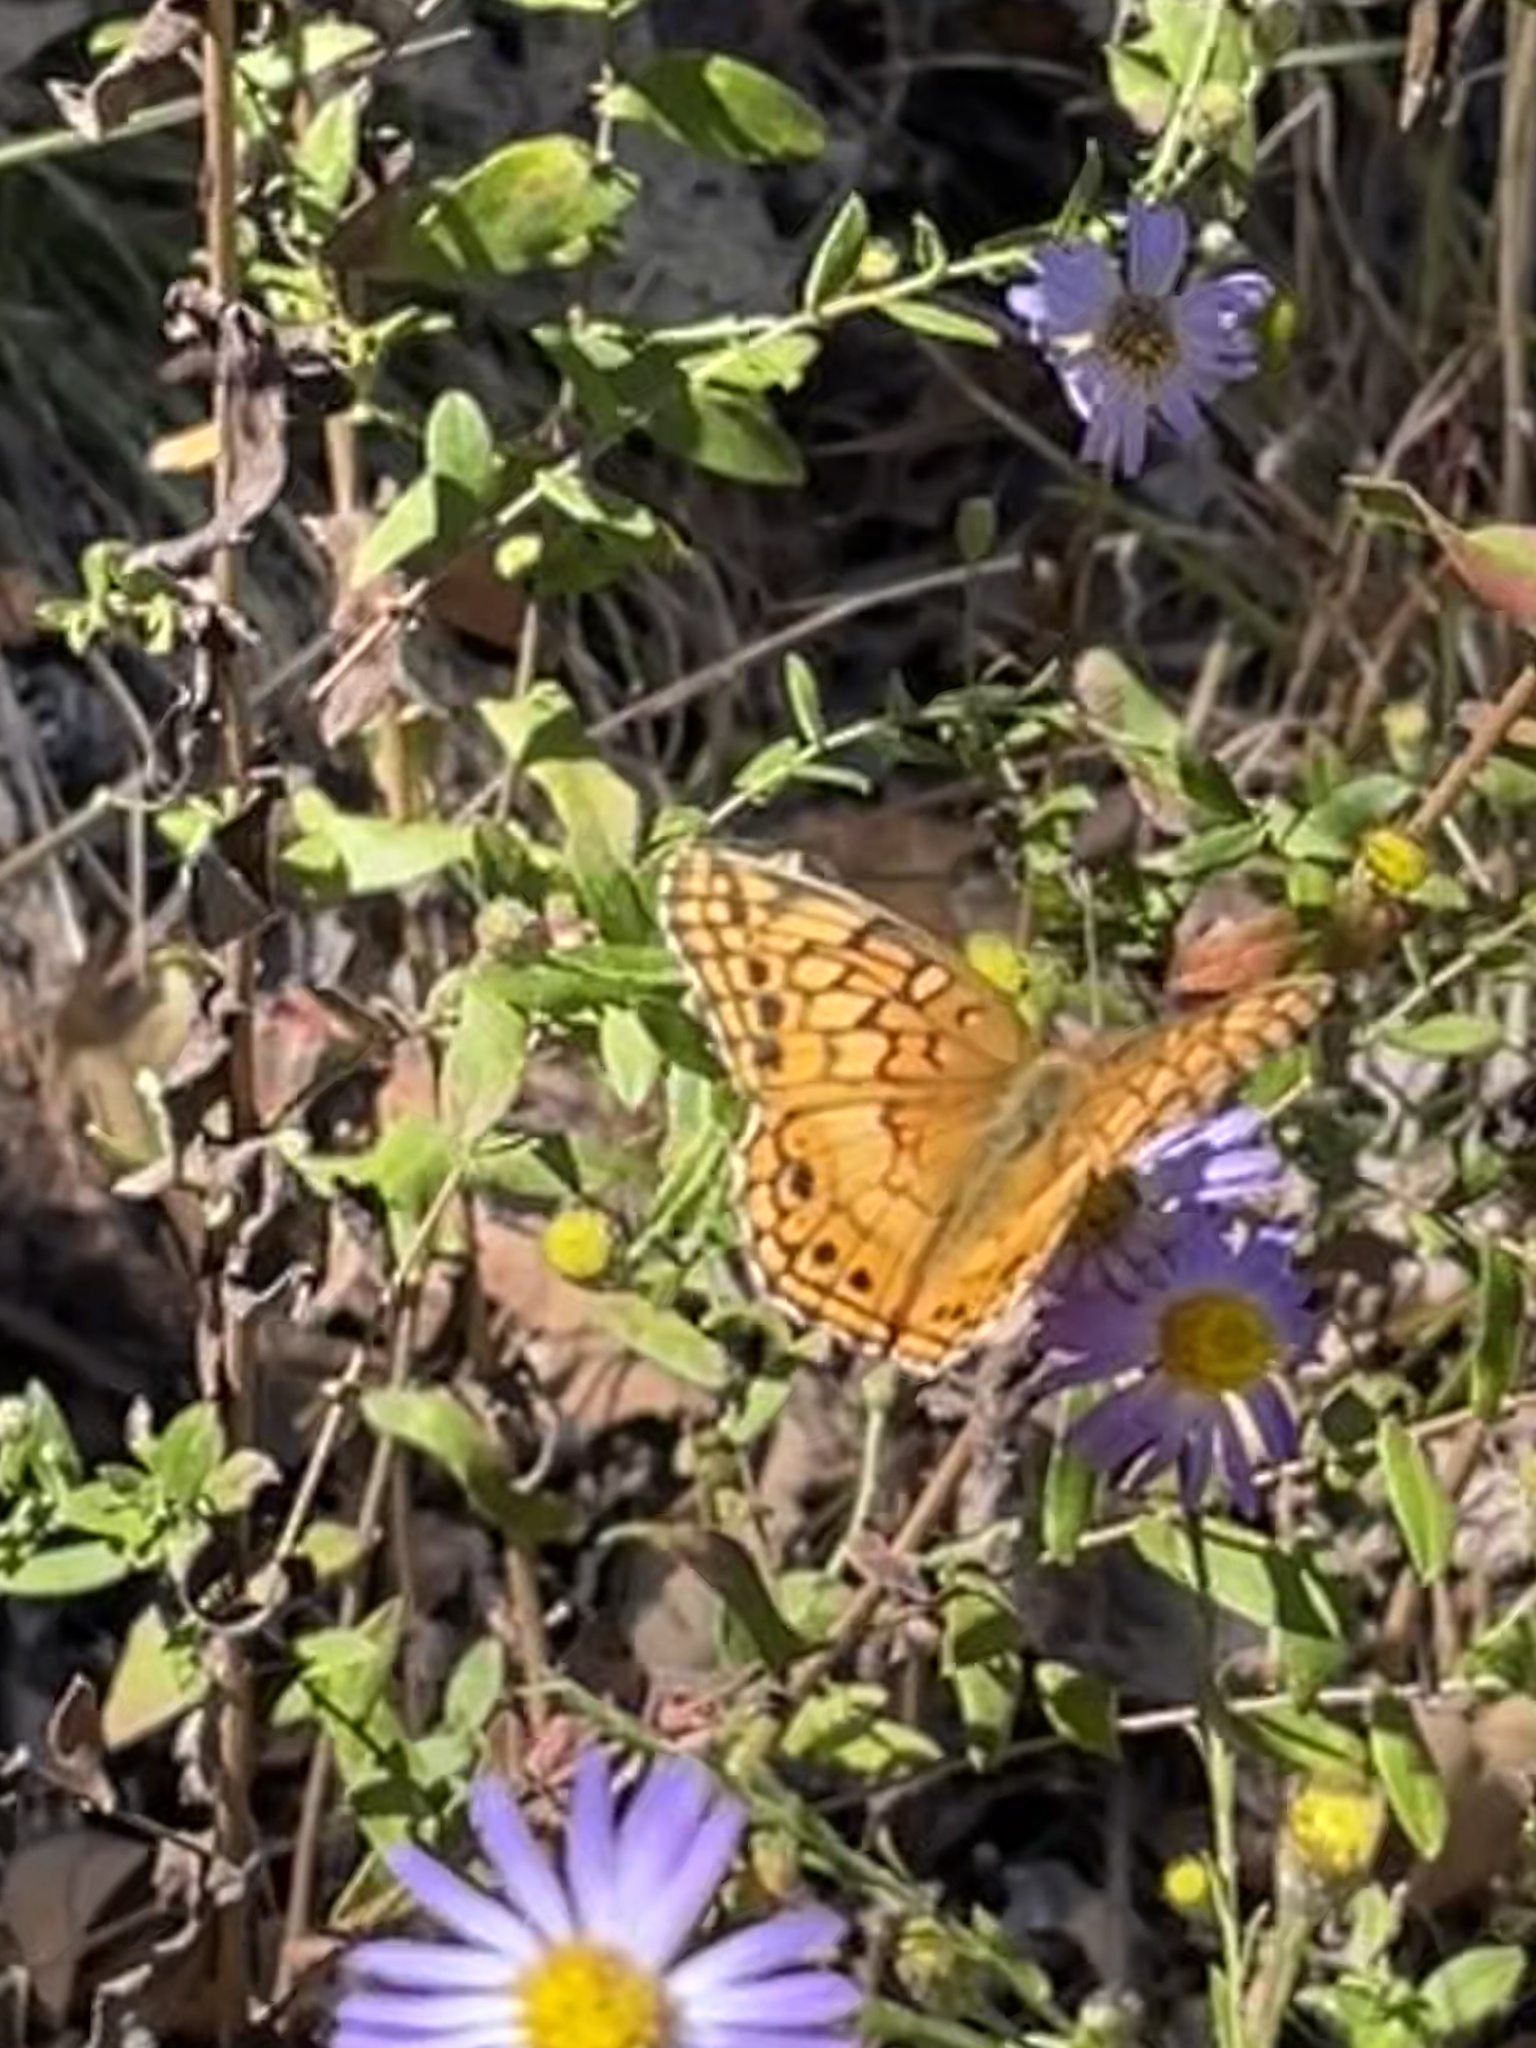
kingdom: Animalia
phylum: Arthropoda
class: Insecta
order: Lepidoptera
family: Nymphalidae
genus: Euptoieta
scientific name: Euptoieta claudia
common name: Variegated fritillary
